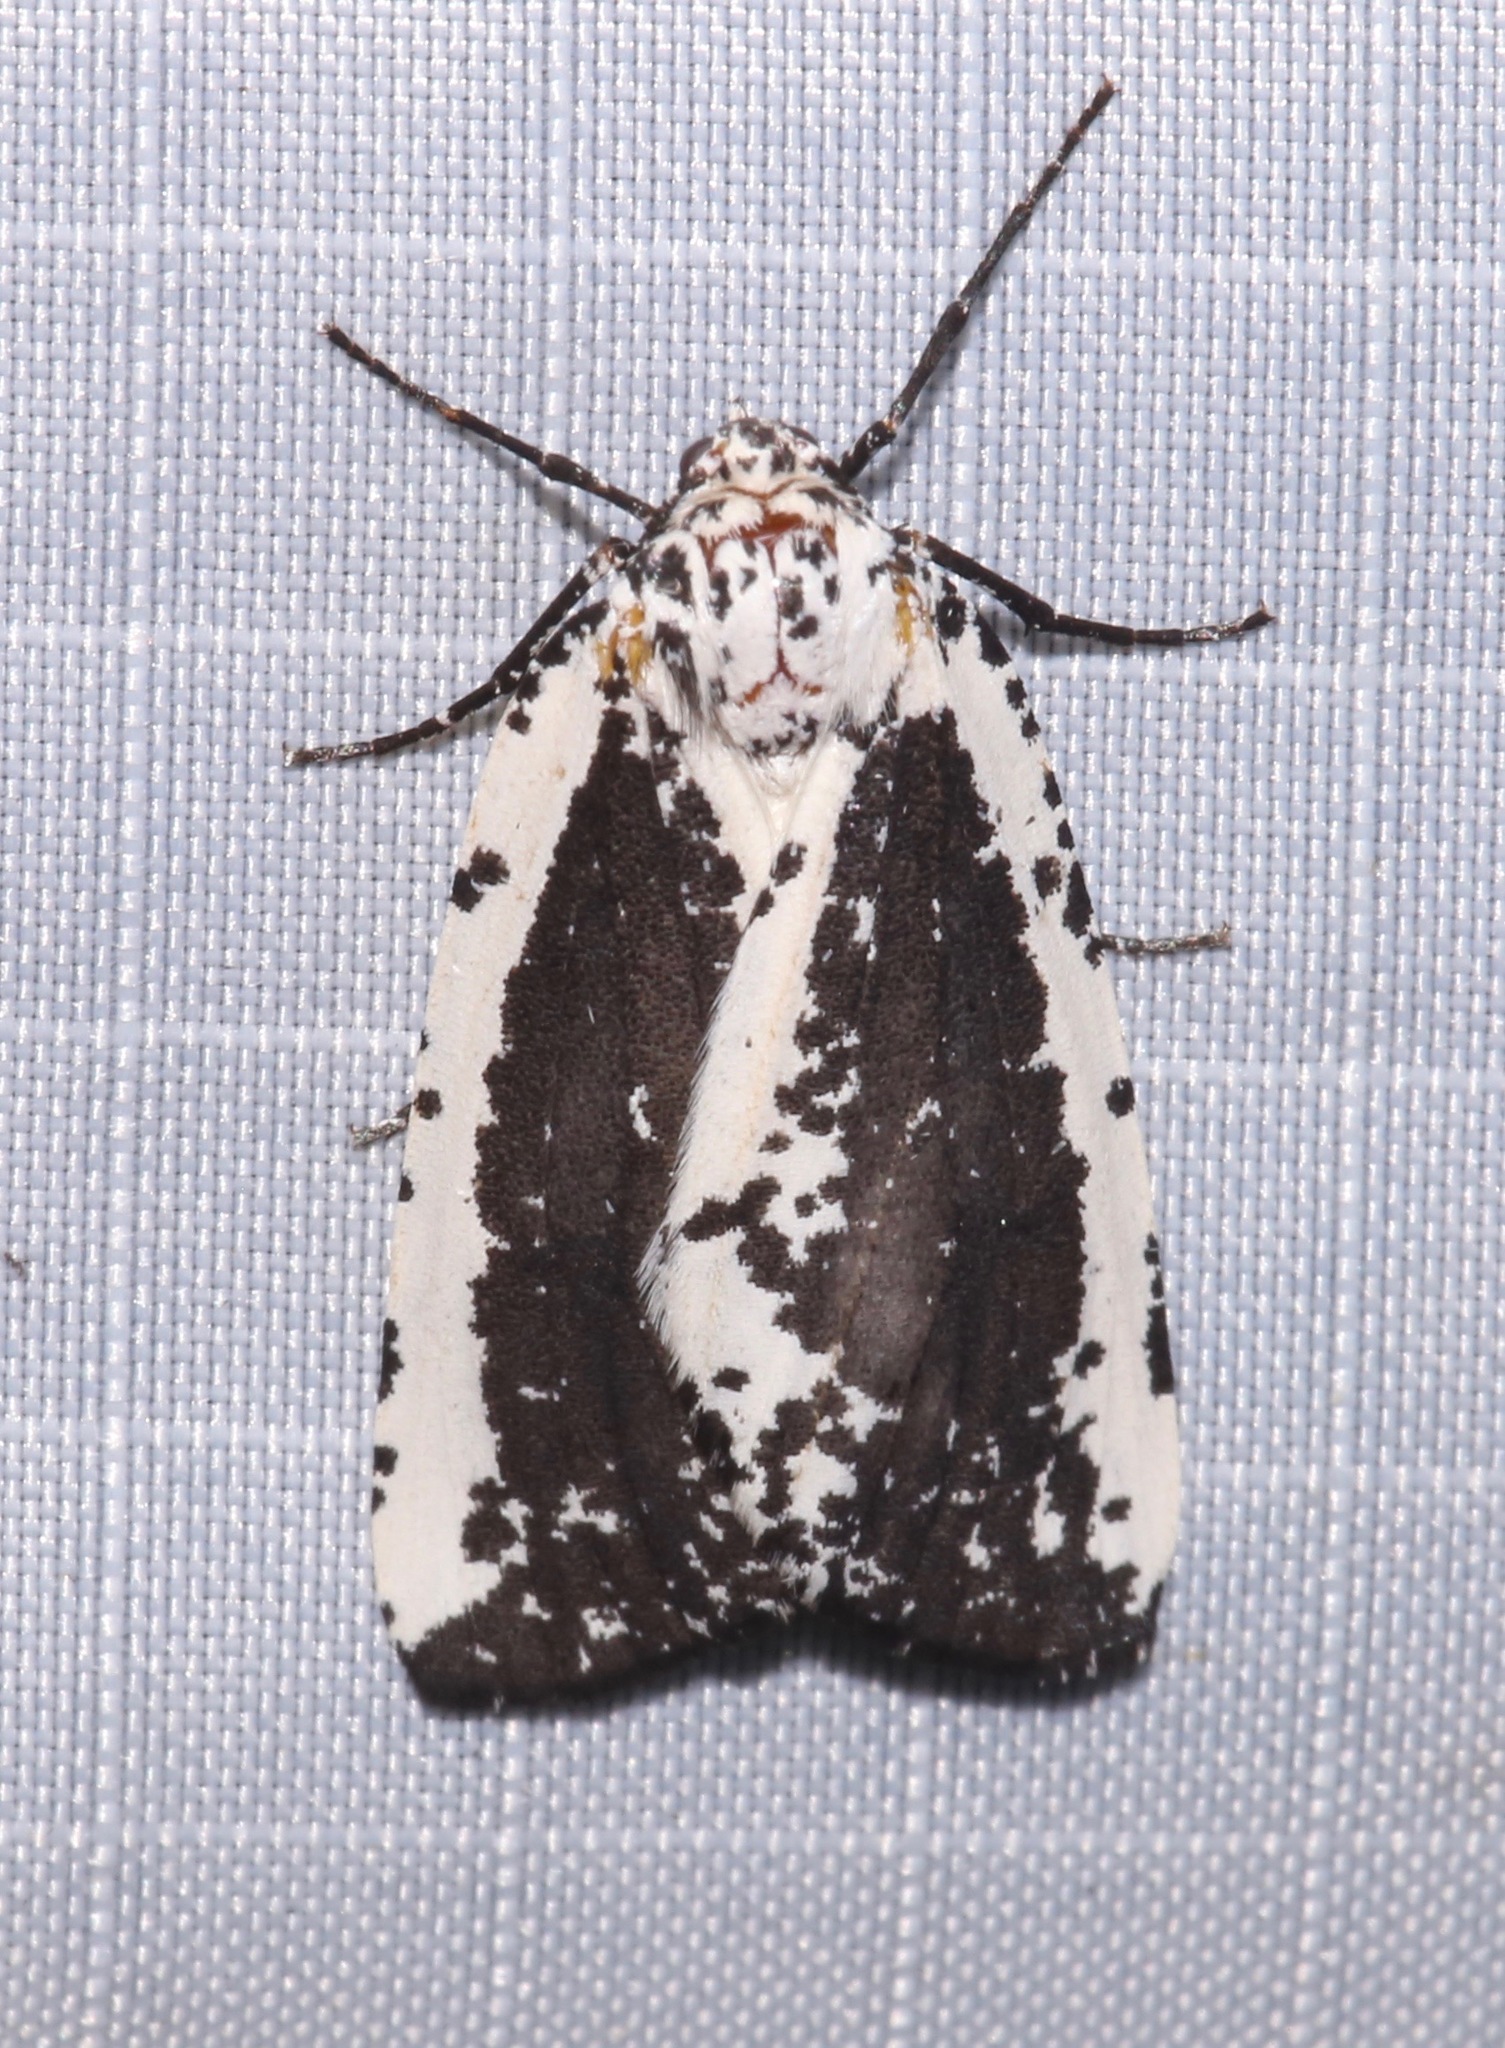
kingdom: Animalia
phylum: Arthropoda
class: Insecta
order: Lepidoptera
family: Geometridae
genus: Eucaterva
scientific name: Eucaterva variaria
